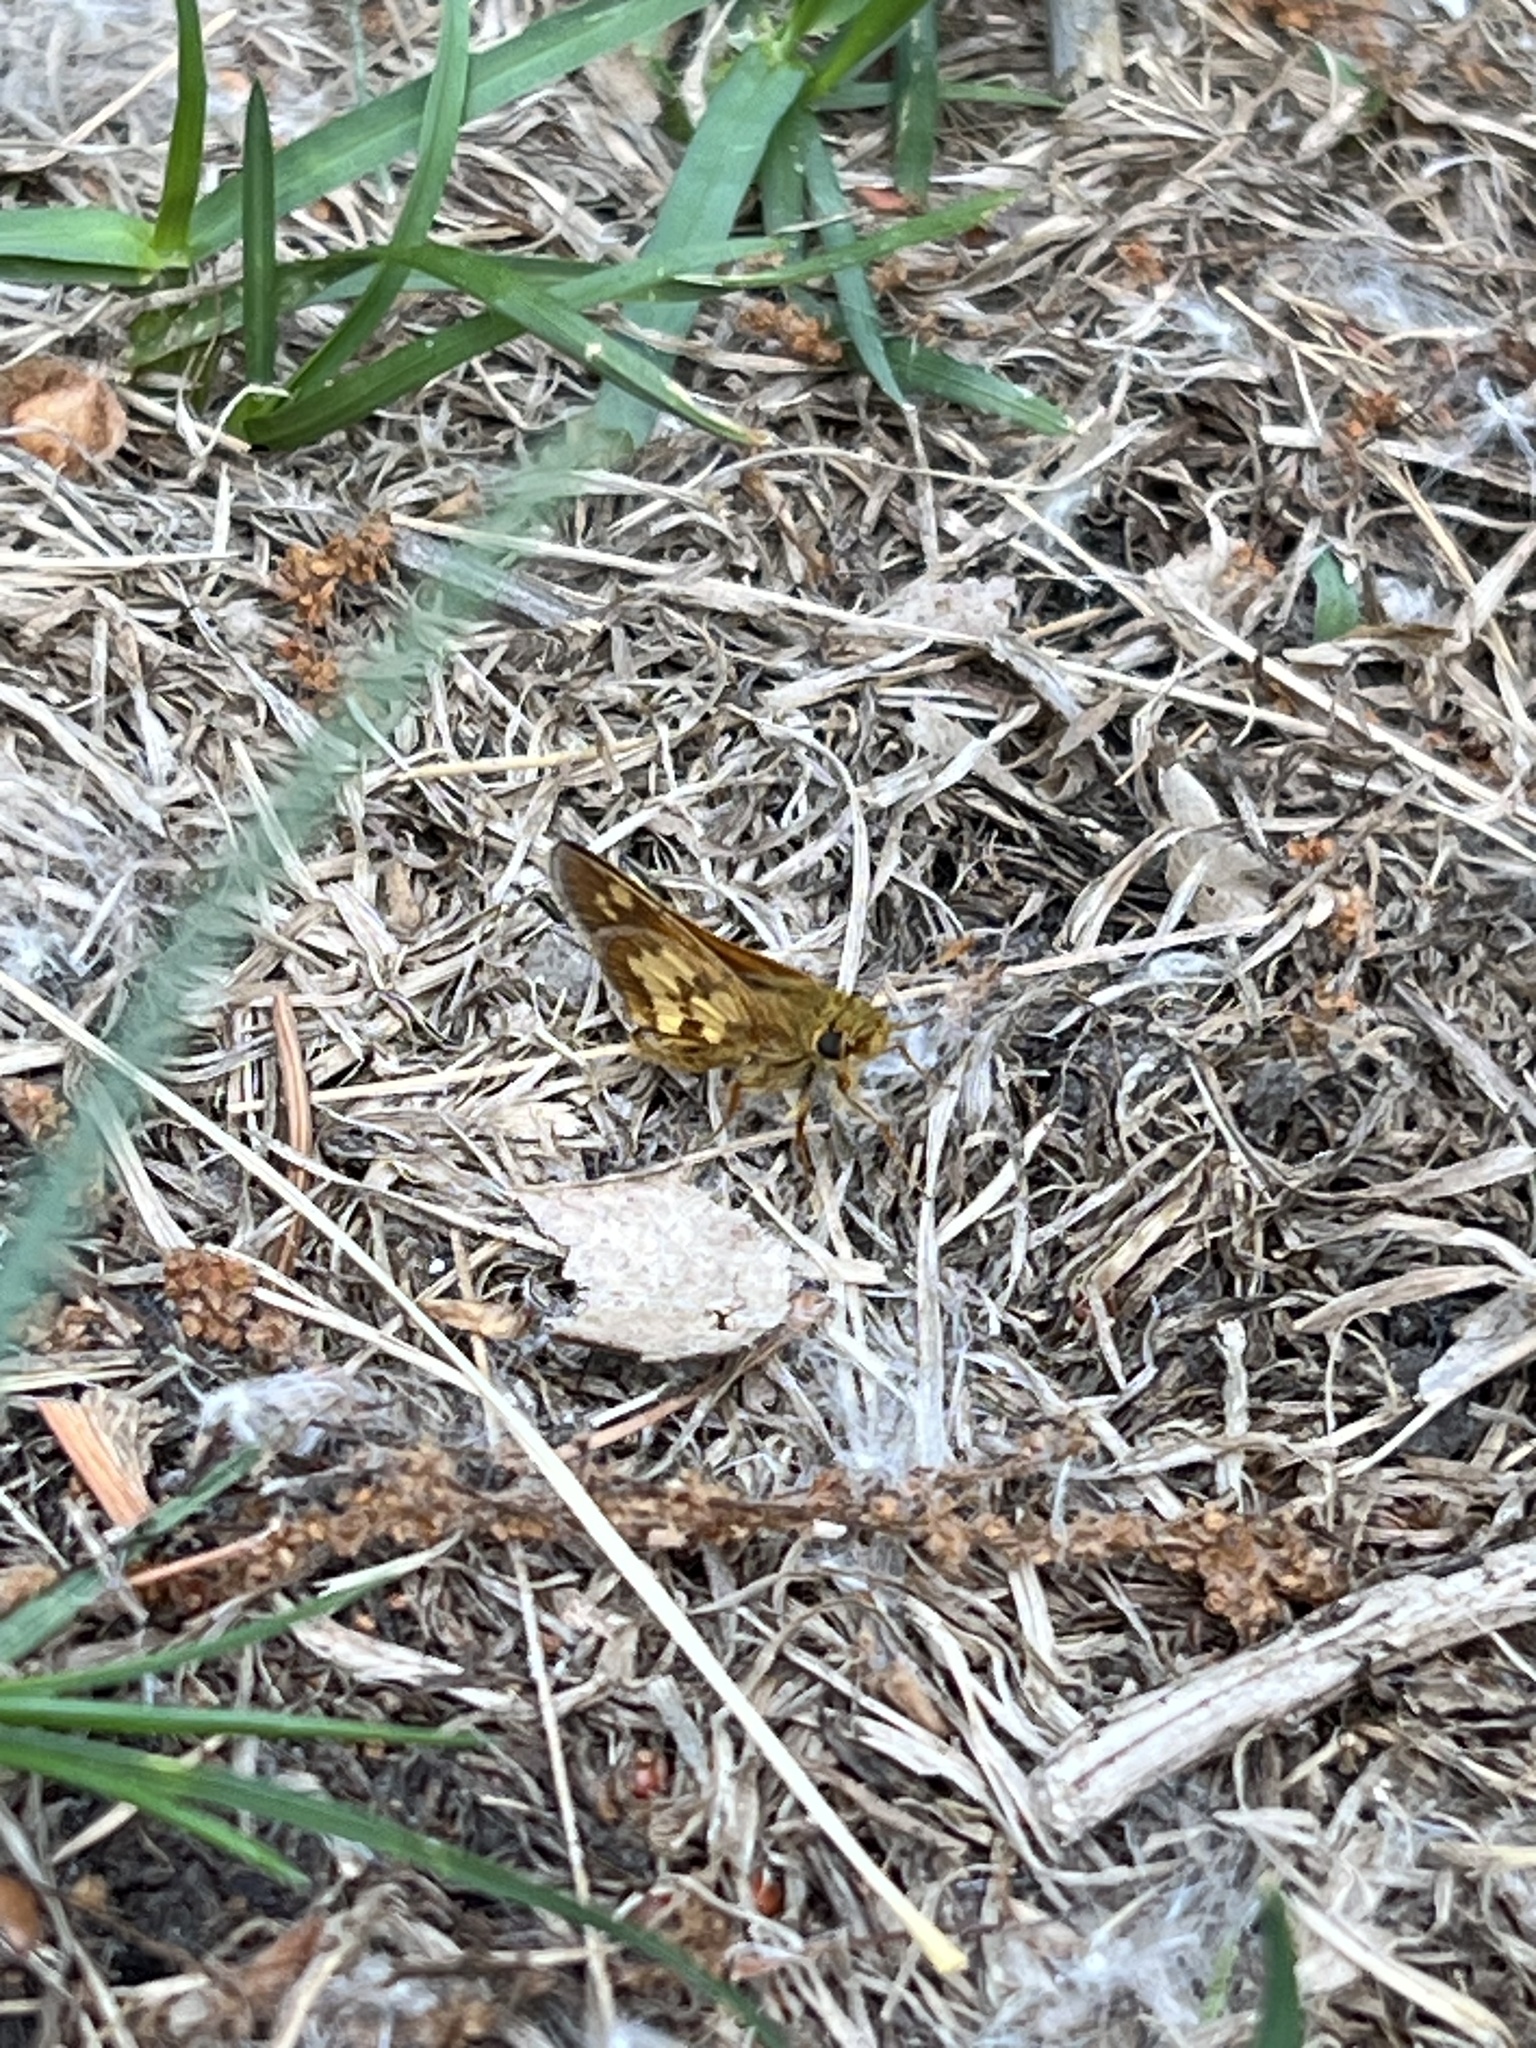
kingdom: Animalia
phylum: Arthropoda
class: Insecta
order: Lepidoptera
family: Hesperiidae
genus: Polites
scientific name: Polites coras
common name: Peck's skipper
